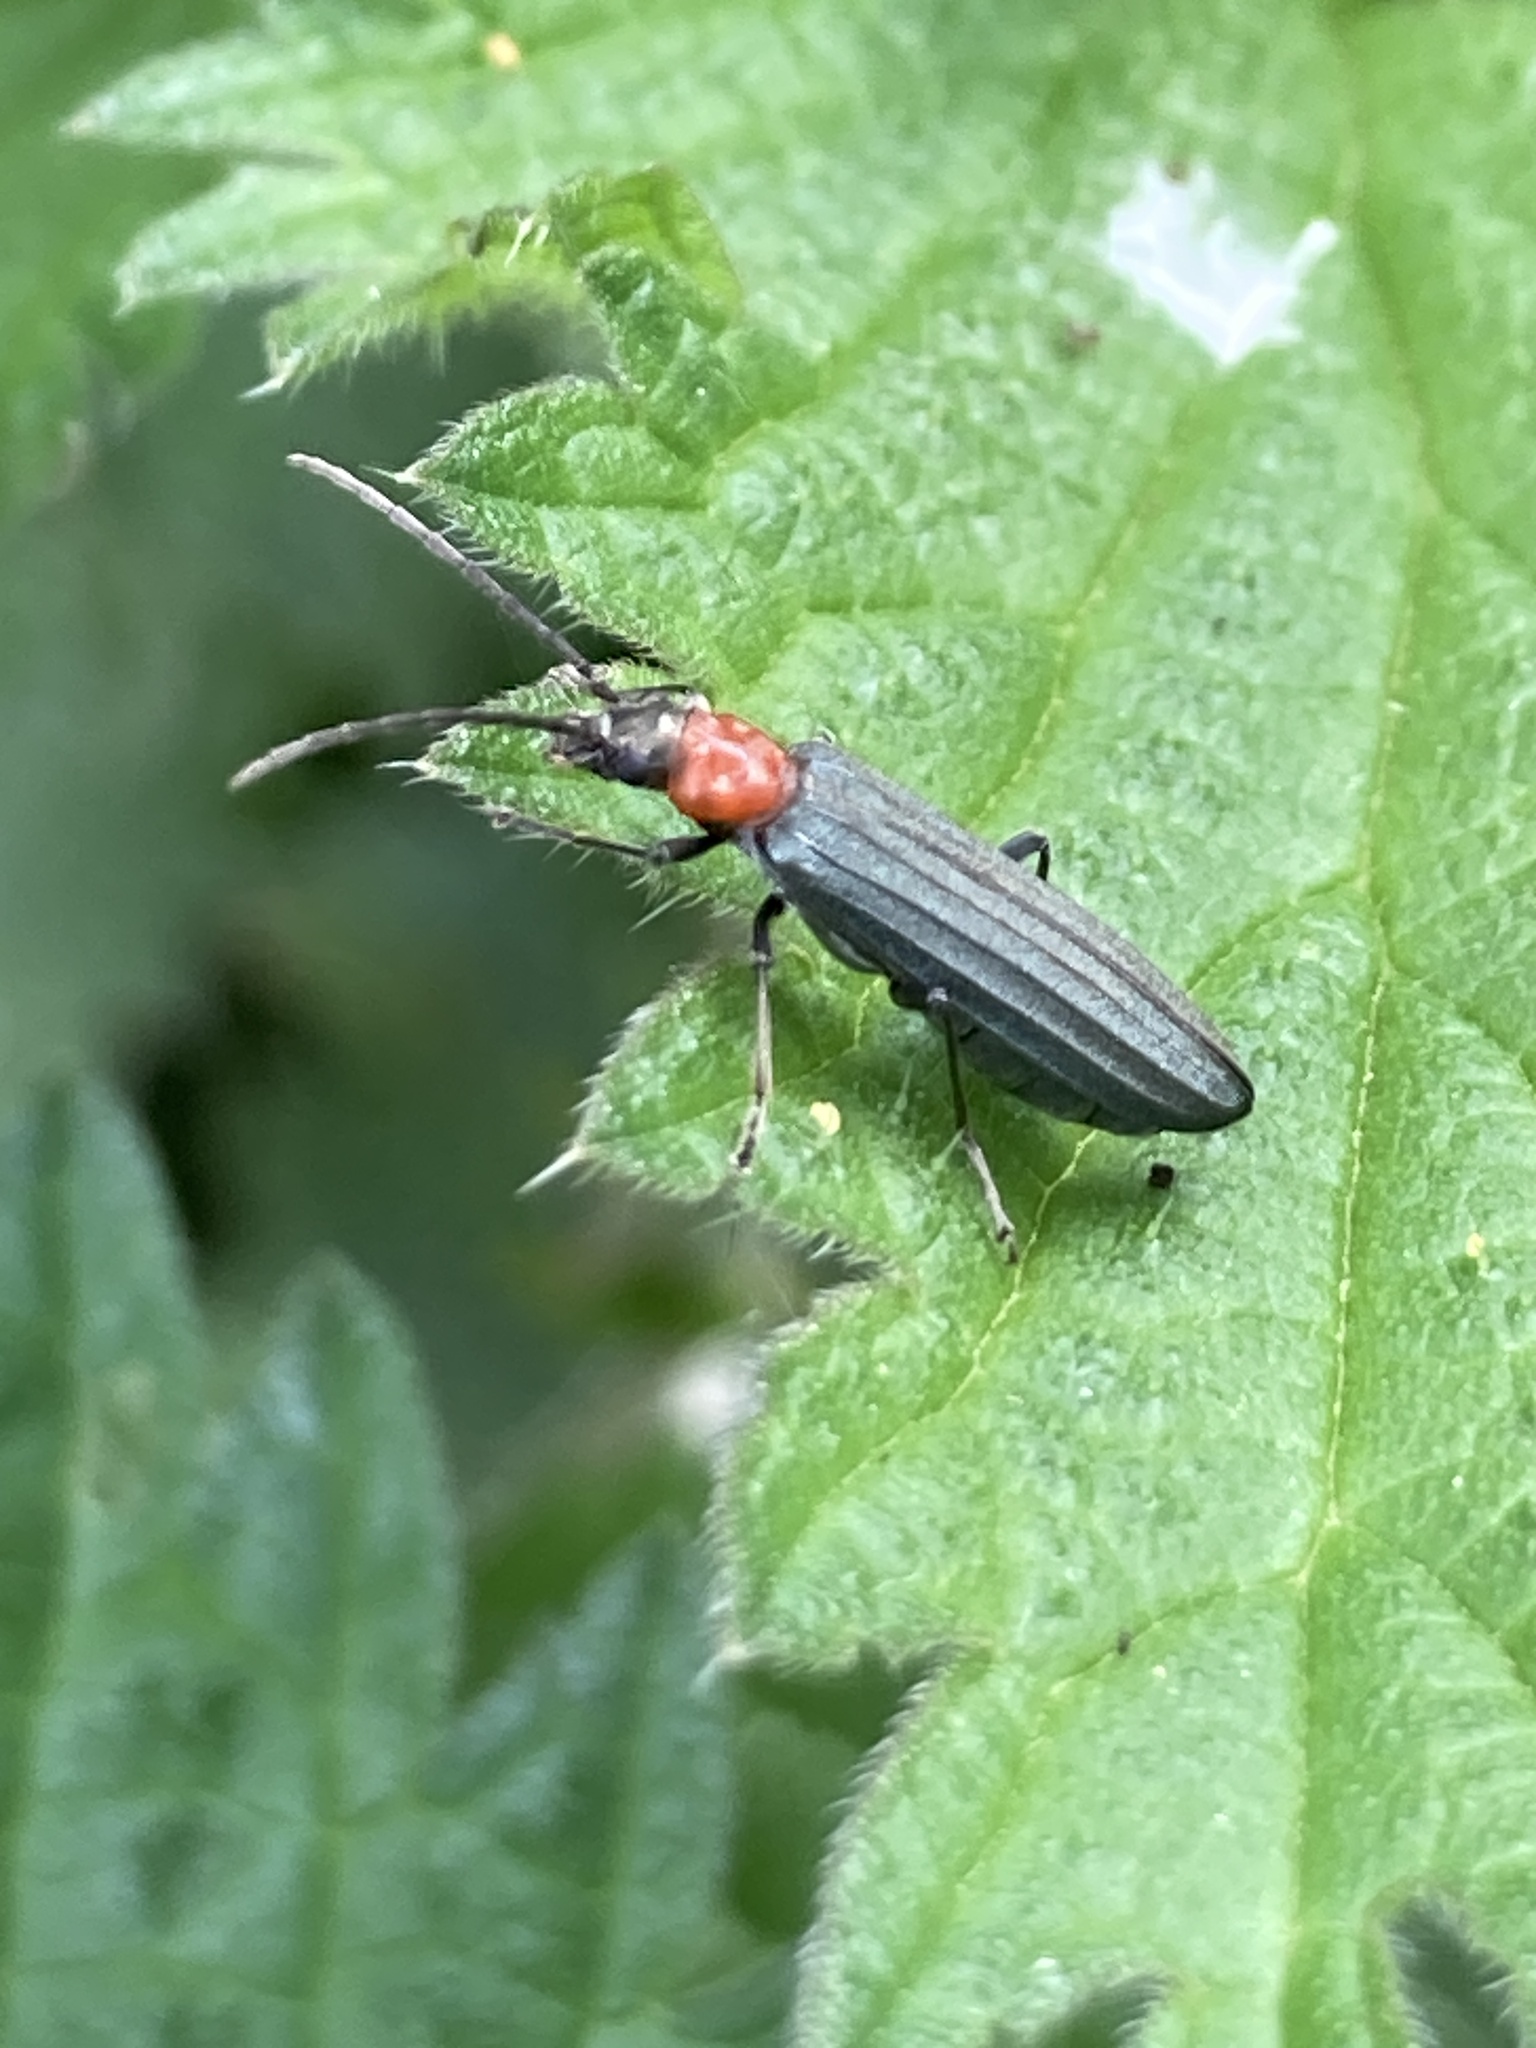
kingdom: Animalia
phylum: Arthropoda
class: Insecta
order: Coleoptera
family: Oedemeridae
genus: Ischnomera
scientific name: Ischnomera sanguinicollis
